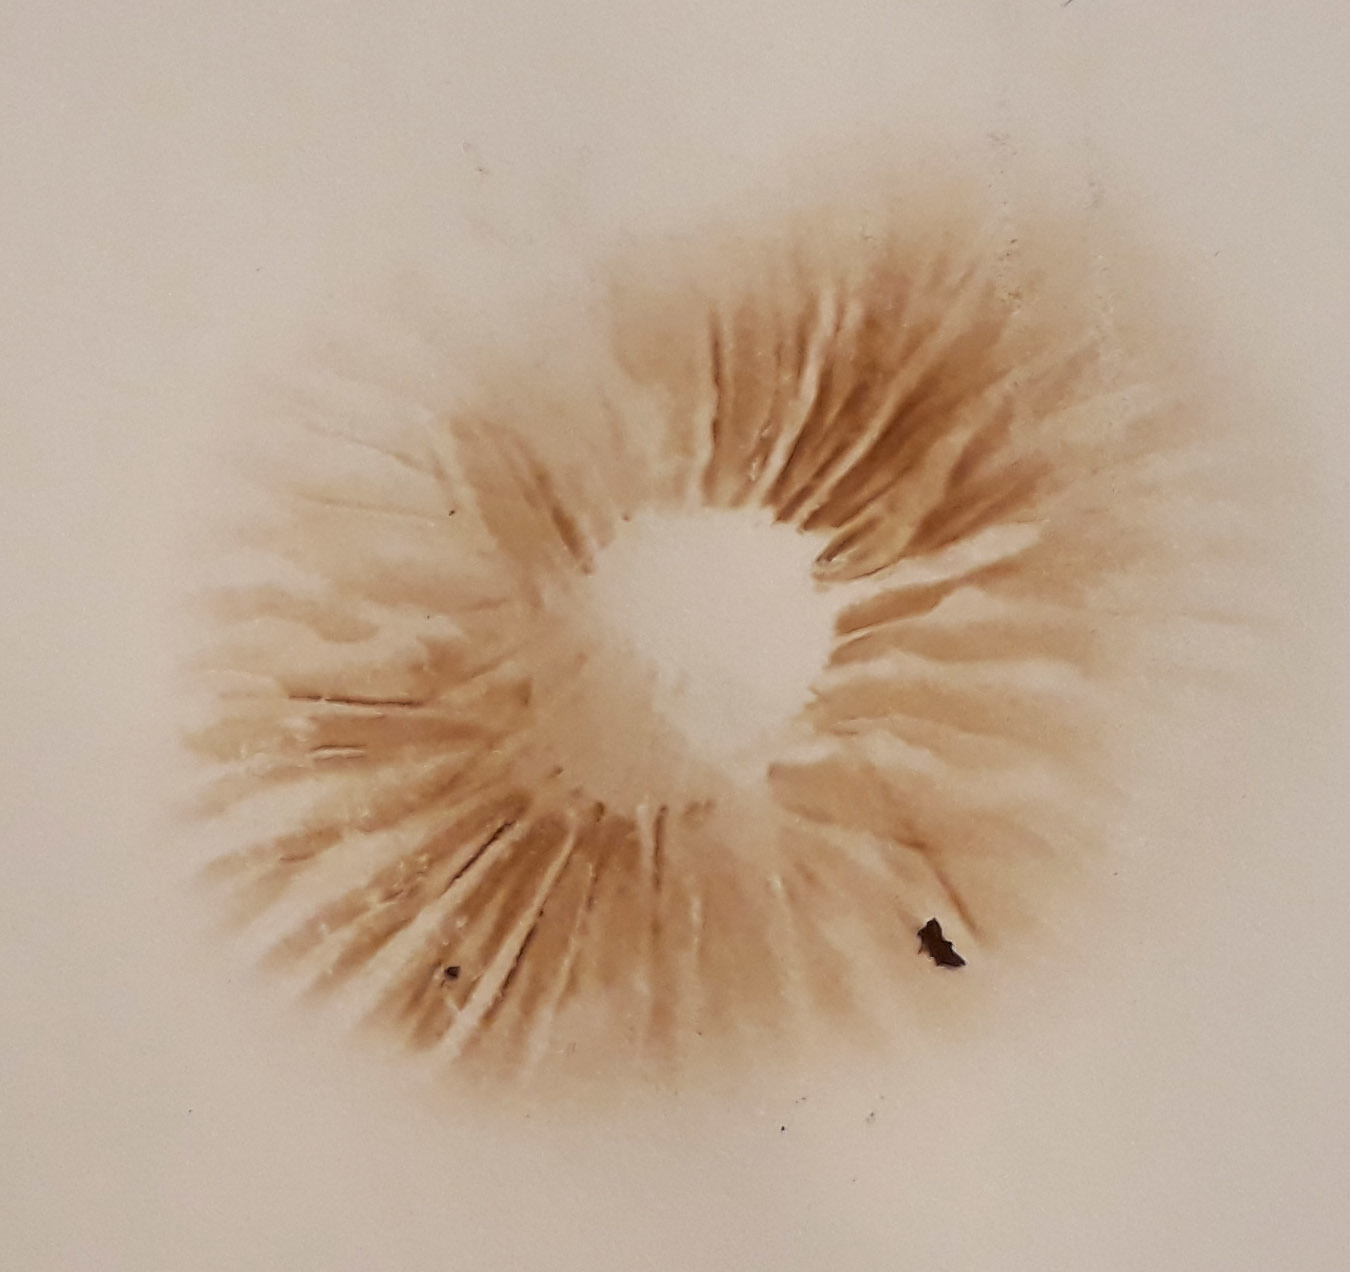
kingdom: Fungi
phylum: Basidiomycota
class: Agaricomycetes
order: Agaricales
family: Cortinariaceae
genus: Cortinarius
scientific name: Cortinarius vernus
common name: Spring webcap
